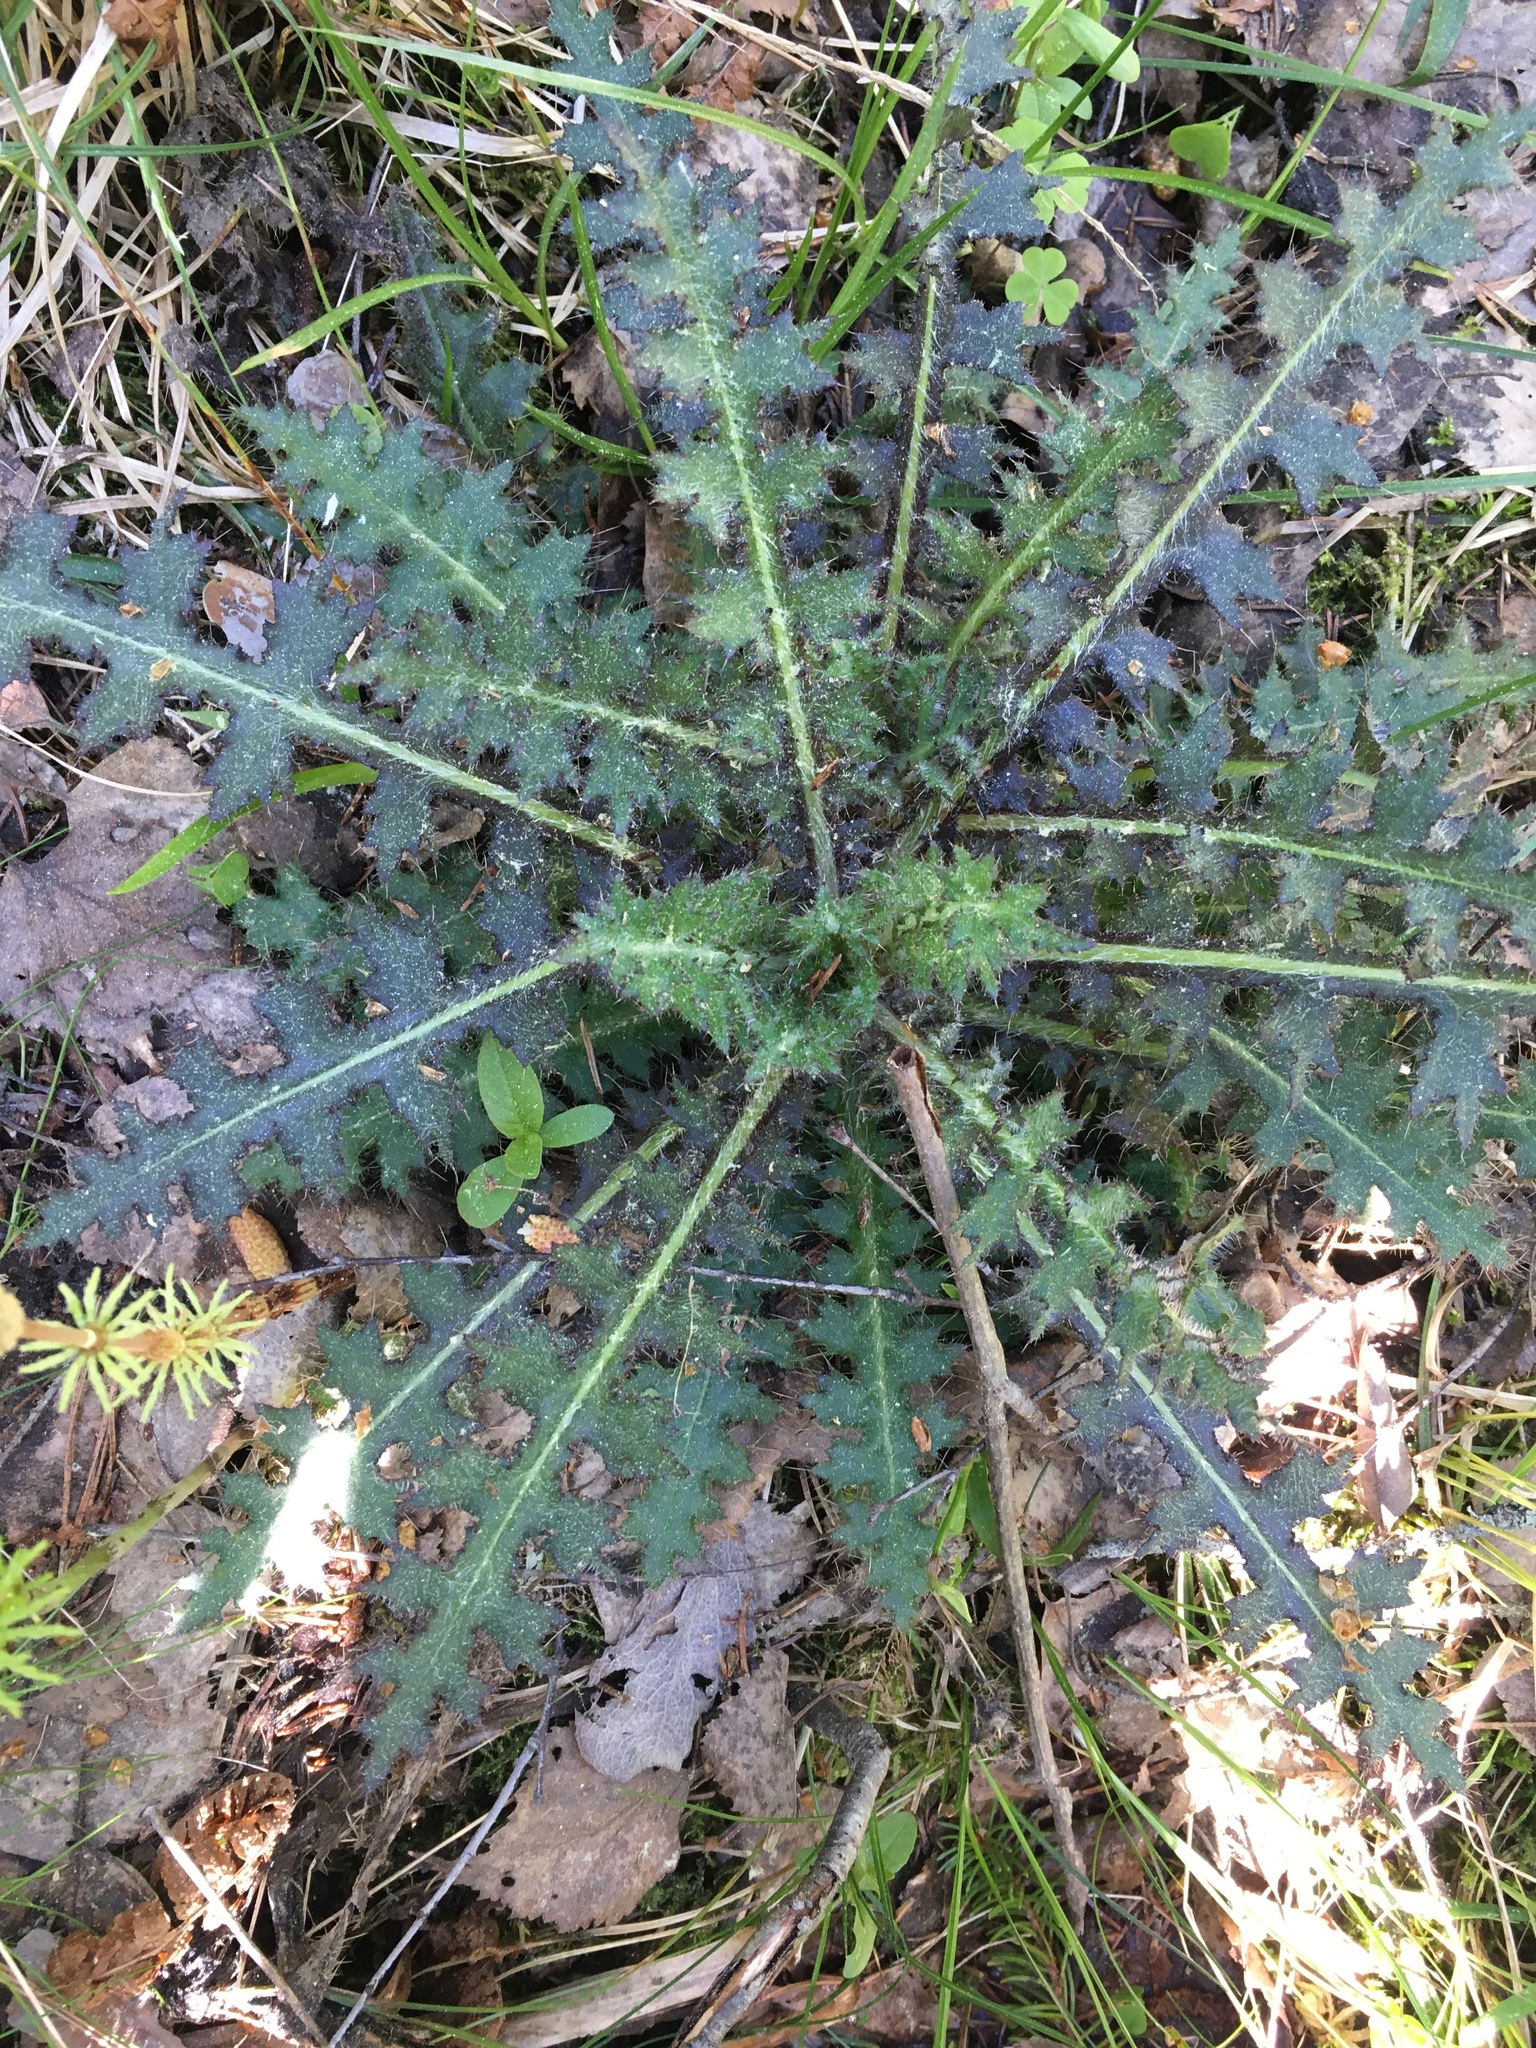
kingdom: Plantae
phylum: Tracheophyta
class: Magnoliopsida
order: Asterales
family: Asteraceae
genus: Cirsium
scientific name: Cirsium palustre
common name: Marsh thistle
